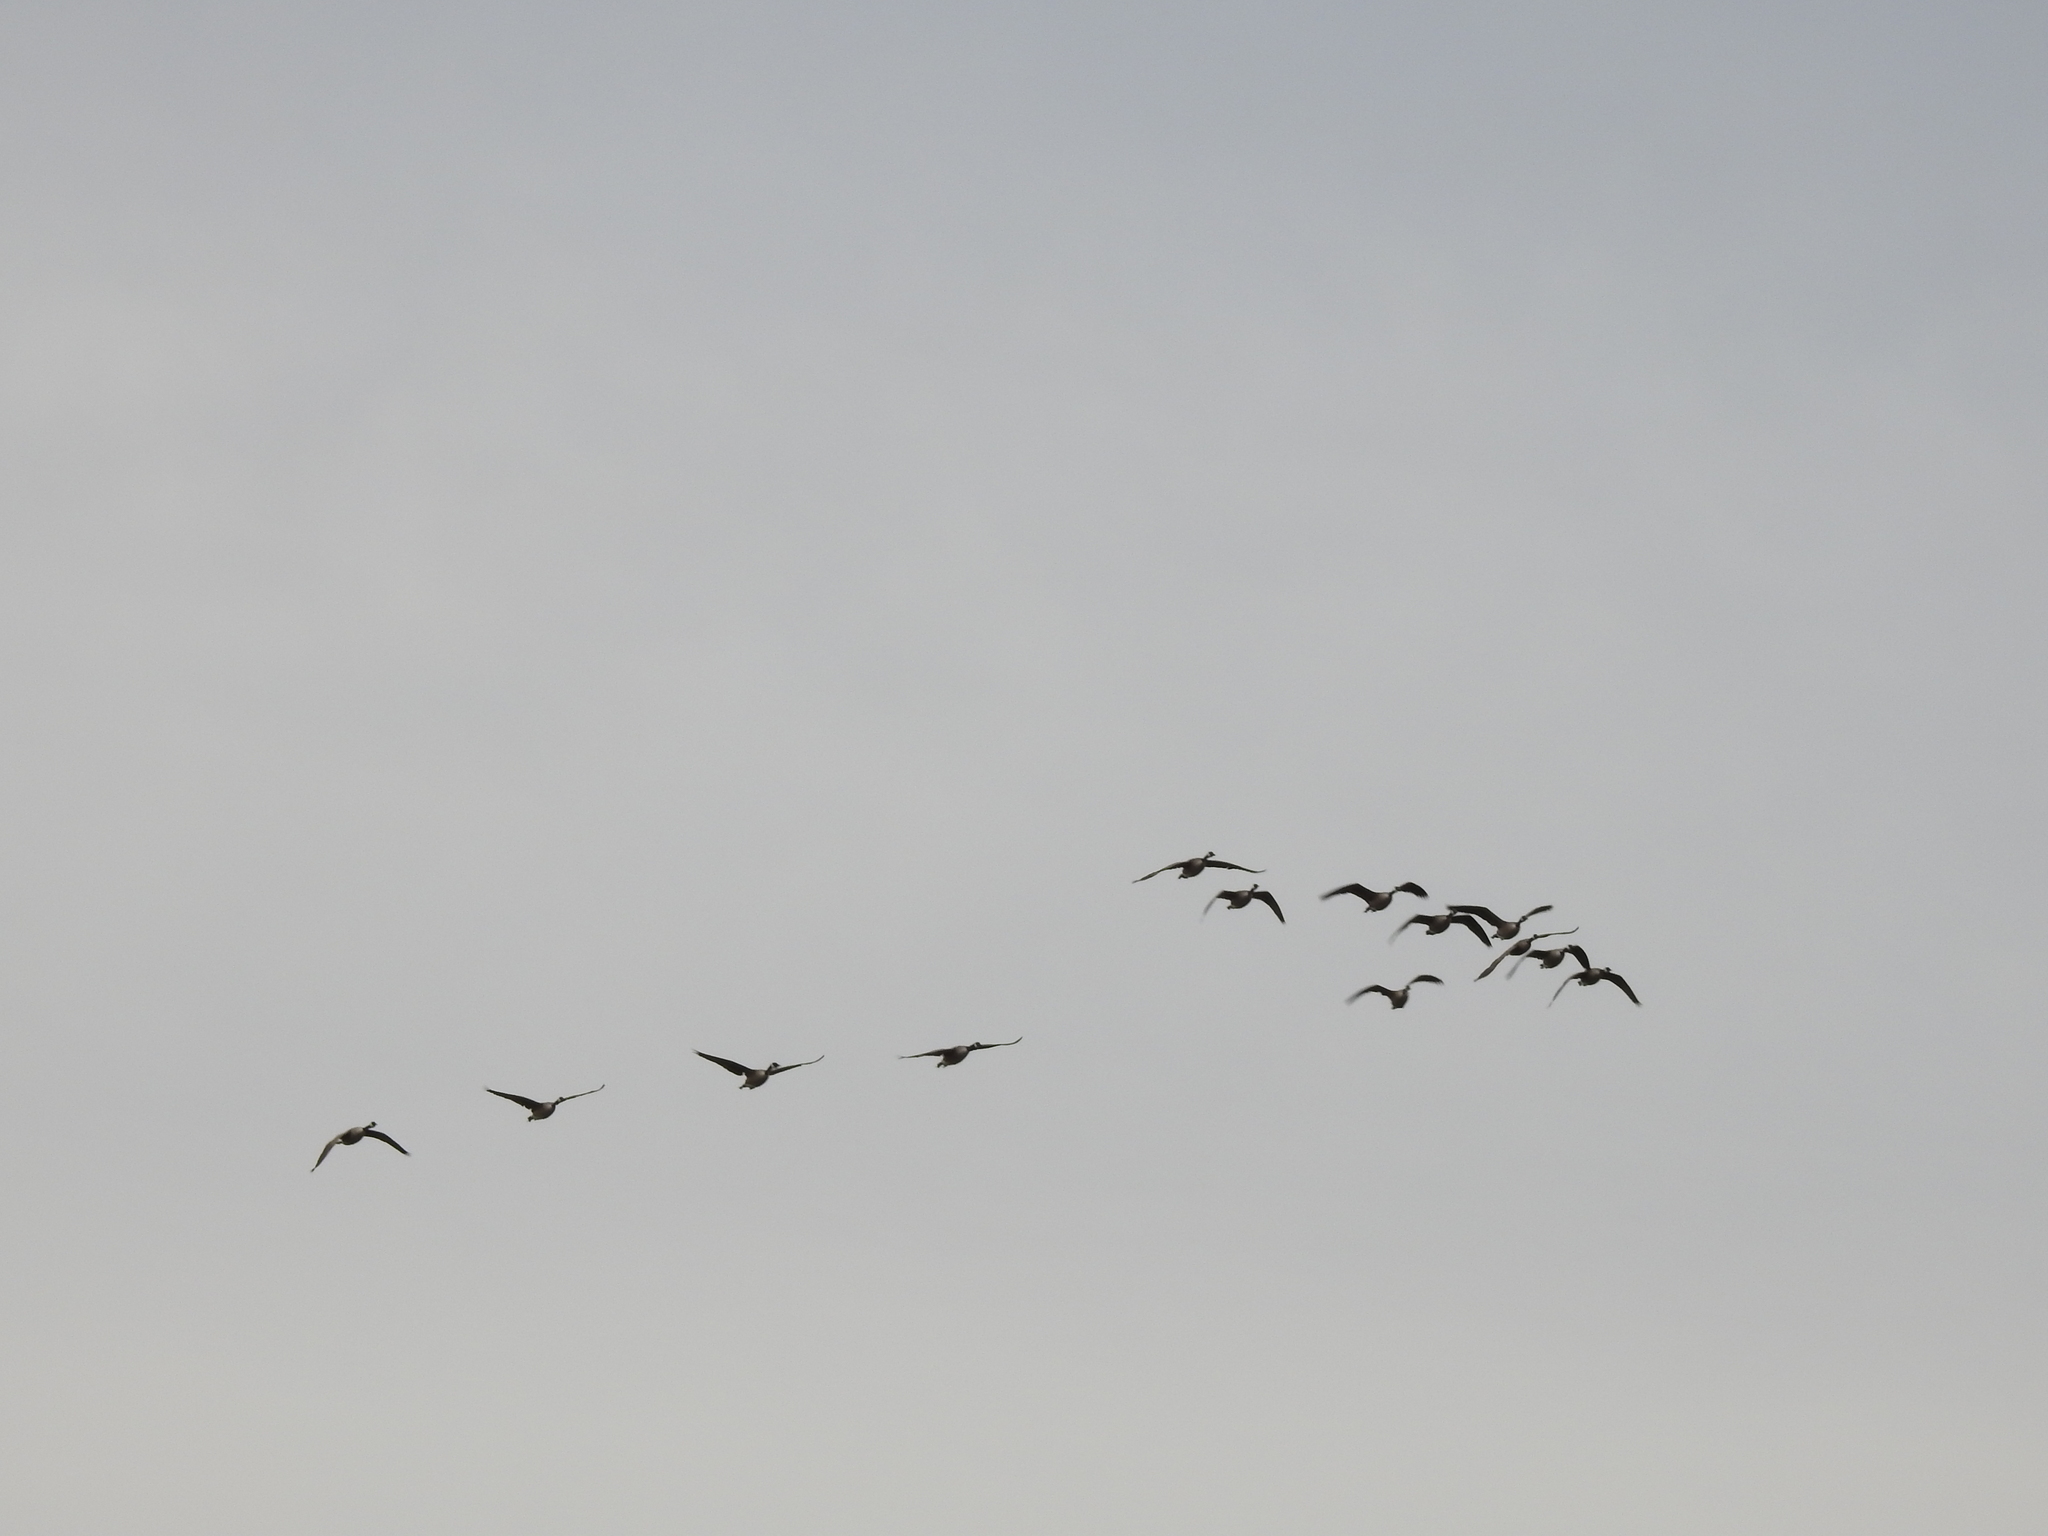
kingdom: Animalia
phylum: Chordata
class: Aves
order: Anseriformes
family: Anatidae
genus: Branta
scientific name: Branta canadensis
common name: Canada goose
